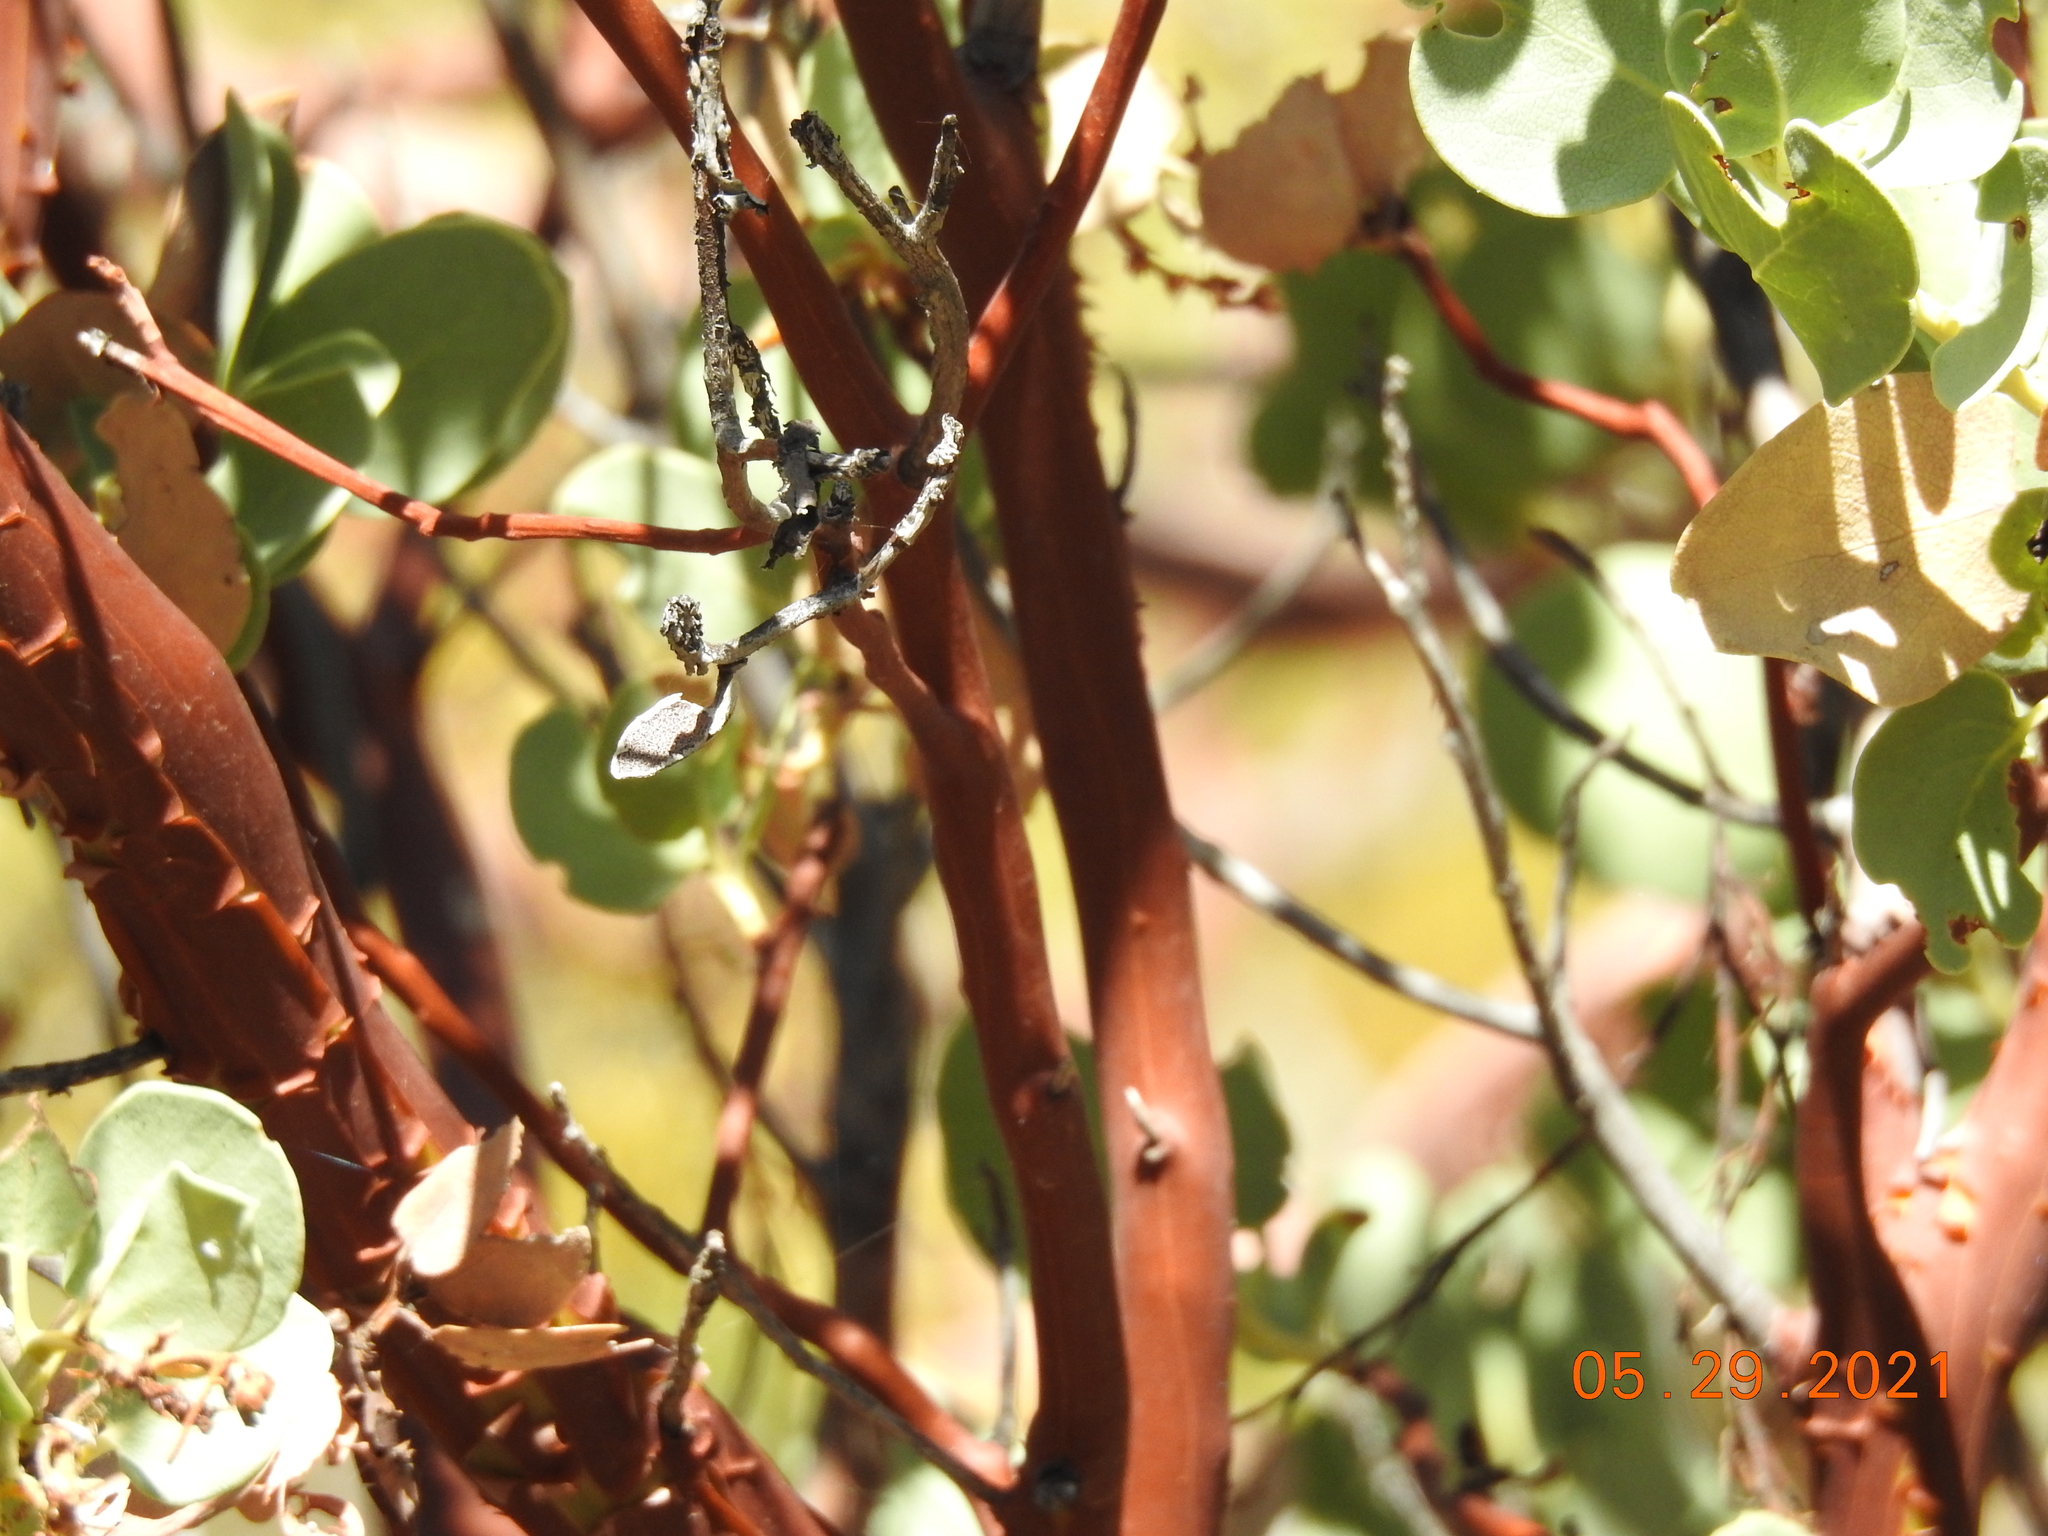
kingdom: Plantae
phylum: Tracheophyta
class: Magnoliopsida
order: Ericales
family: Ericaceae
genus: Arctostaphylos
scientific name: Arctostaphylos glauca
